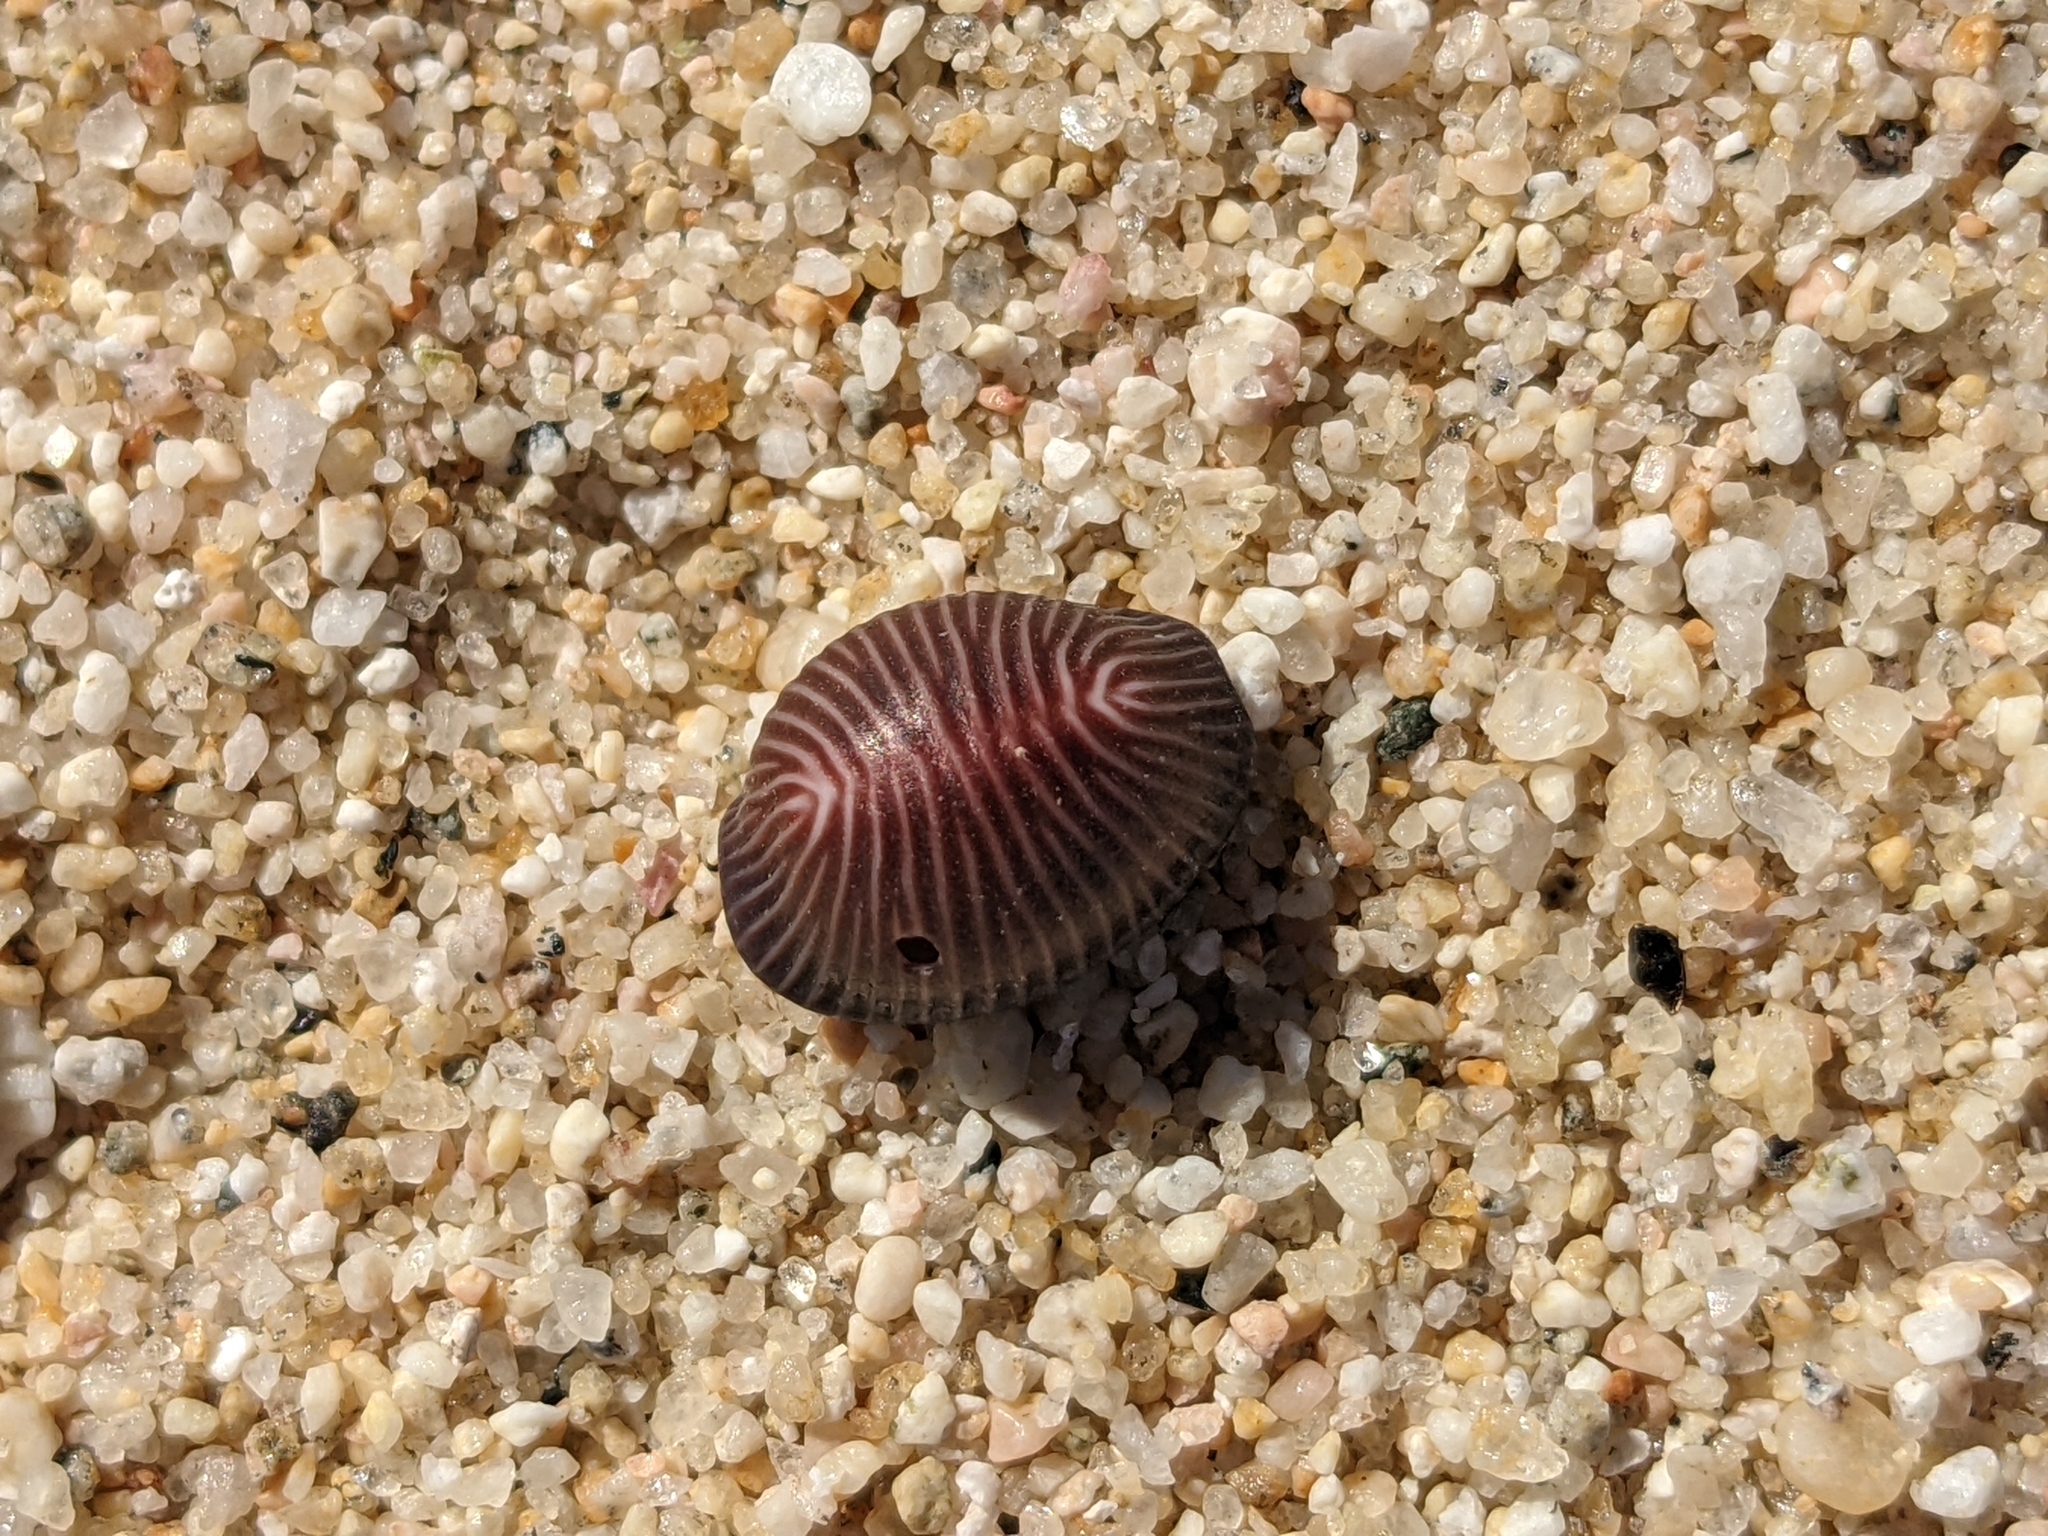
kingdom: Animalia
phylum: Mollusca
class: Gastropoda
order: Littorinimorpha
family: Triviidae
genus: Pseudopusula
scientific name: Pseudopusula sanguinea
